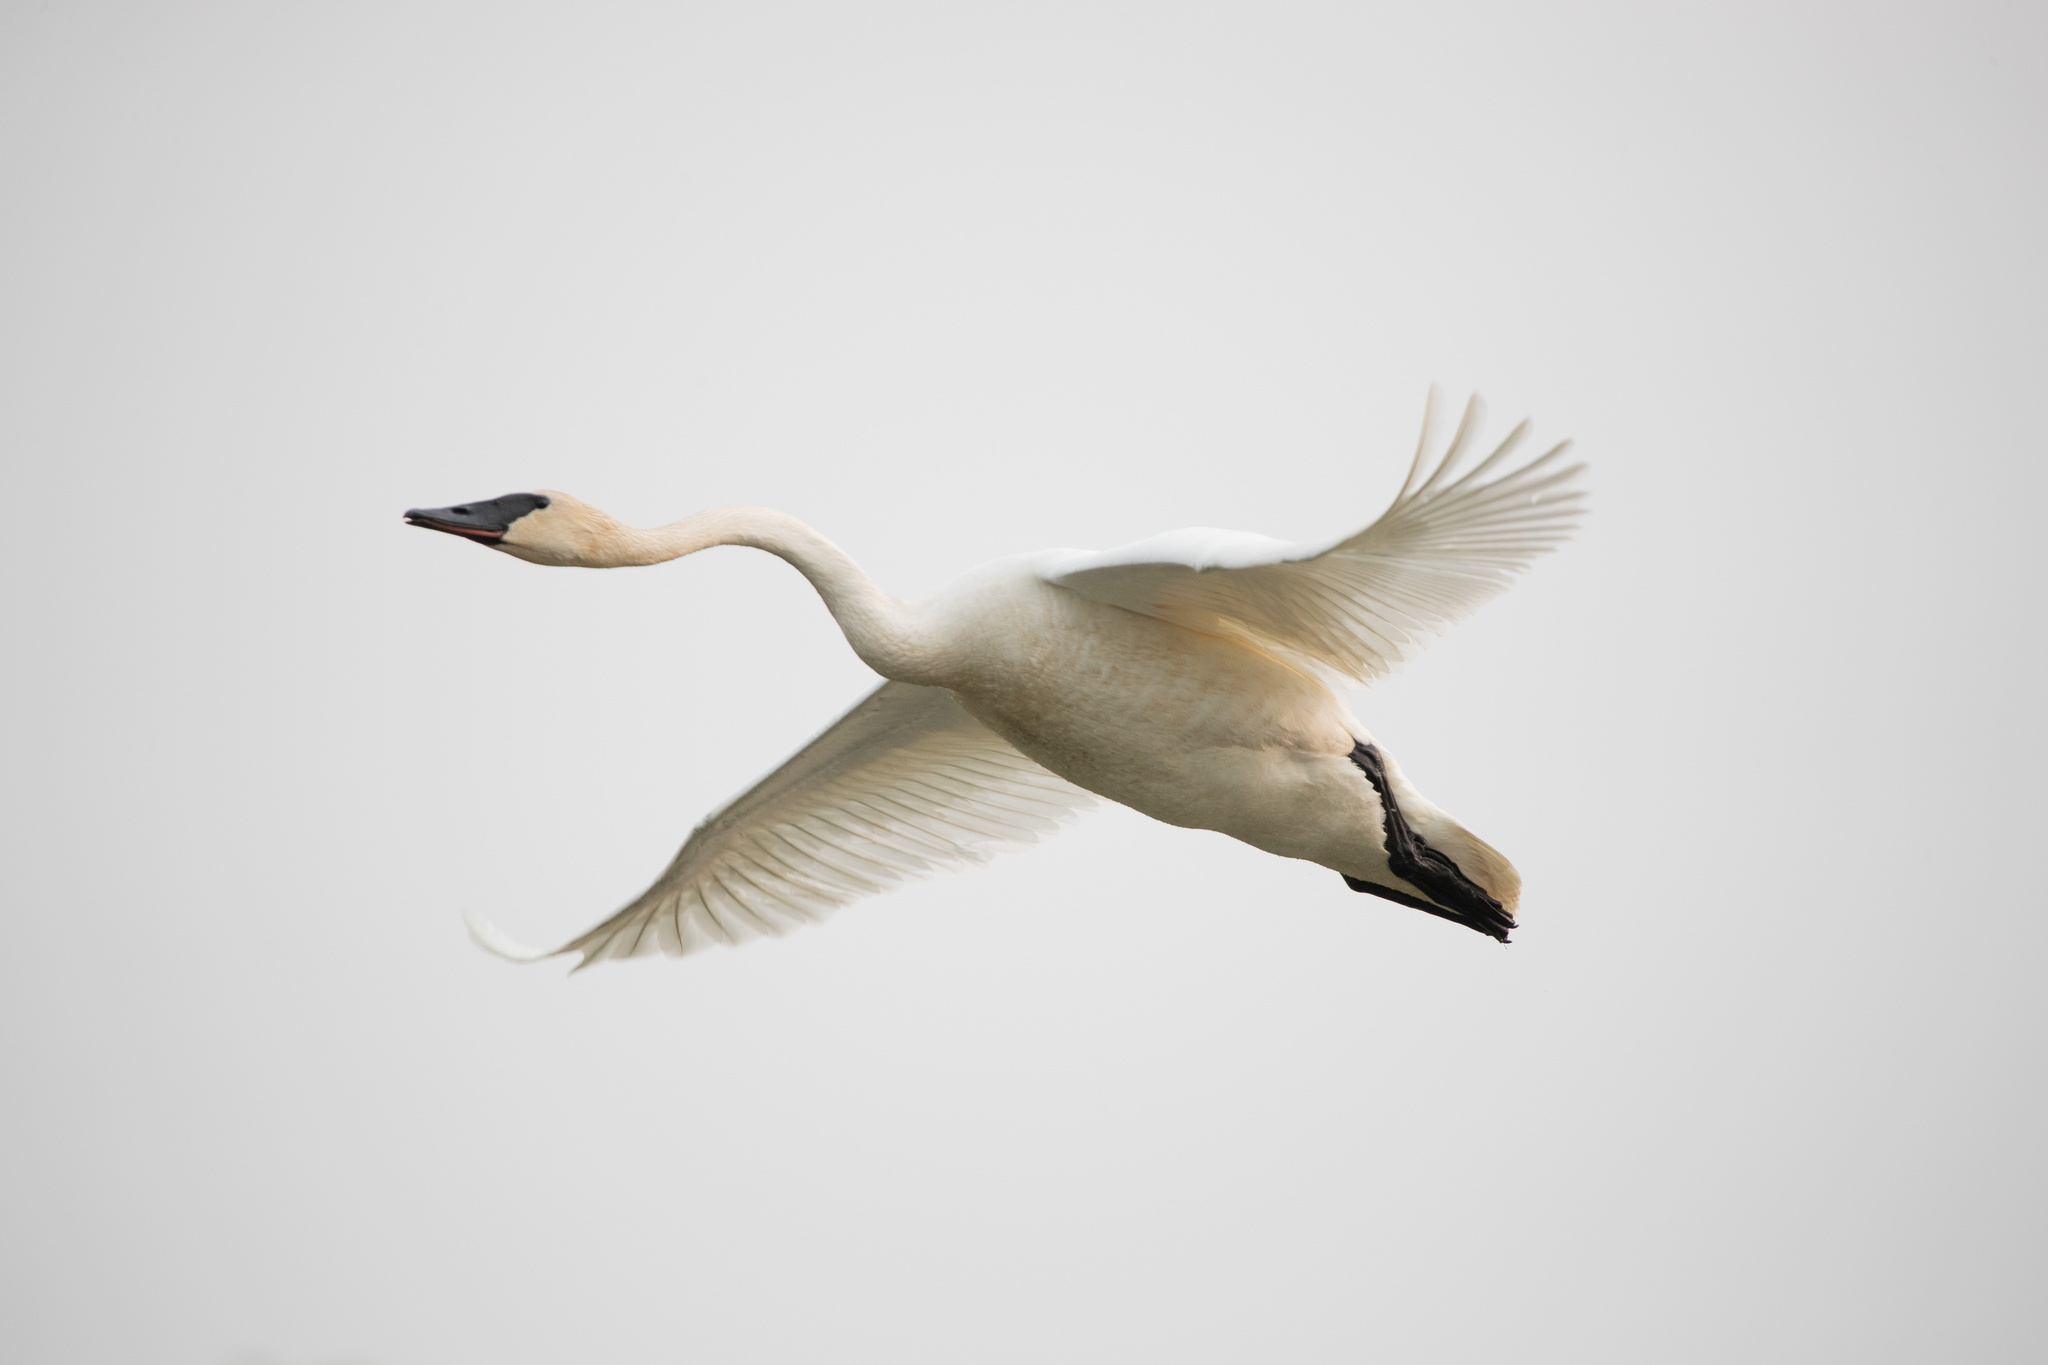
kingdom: Animalia
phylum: Chordata
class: Aves
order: Anseriformes
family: Anatidae
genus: Cygnus
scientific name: Cygnus buccinator
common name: Trumpeter swan
